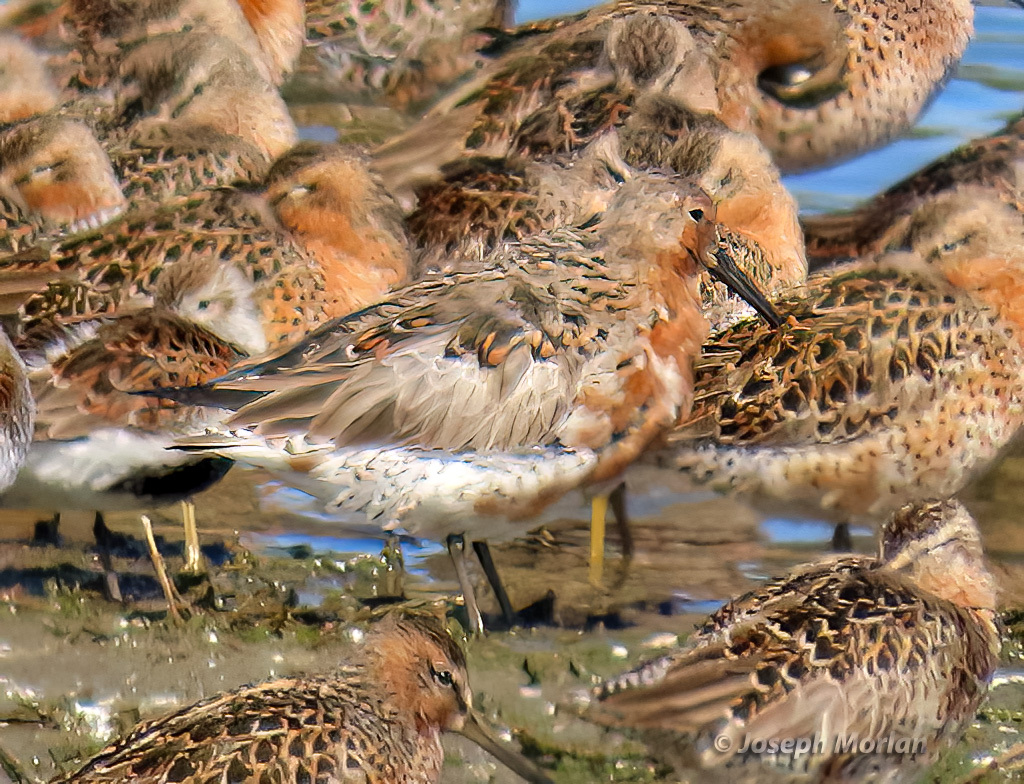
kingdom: Animalia
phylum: Chordata
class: Aves
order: Charadriiformes
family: Scolopacidae
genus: Calidris
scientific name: Calidris canutus
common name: Red knot
